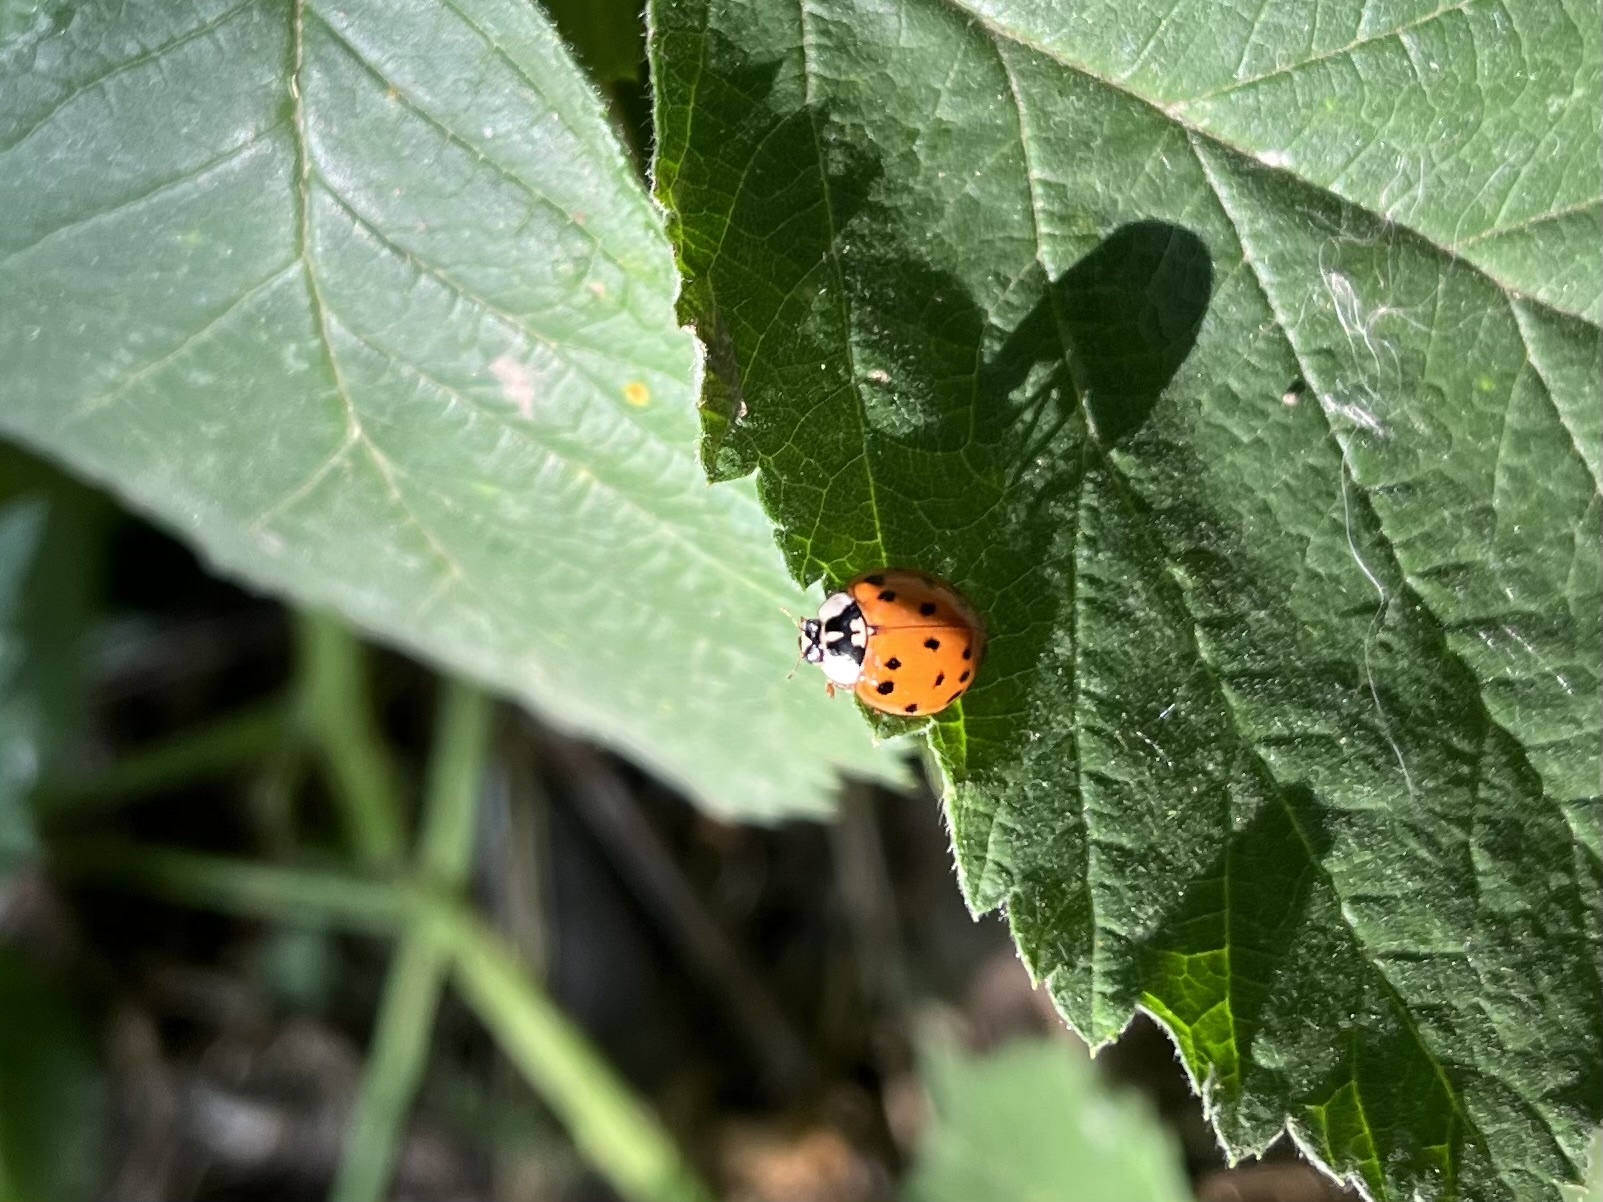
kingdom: Animalia
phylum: Arthropoda
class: Insecta
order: Coleoptera
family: Coccinellidae
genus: Harmonia
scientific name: Harmonia axyridis
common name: Harlequin ladybird
